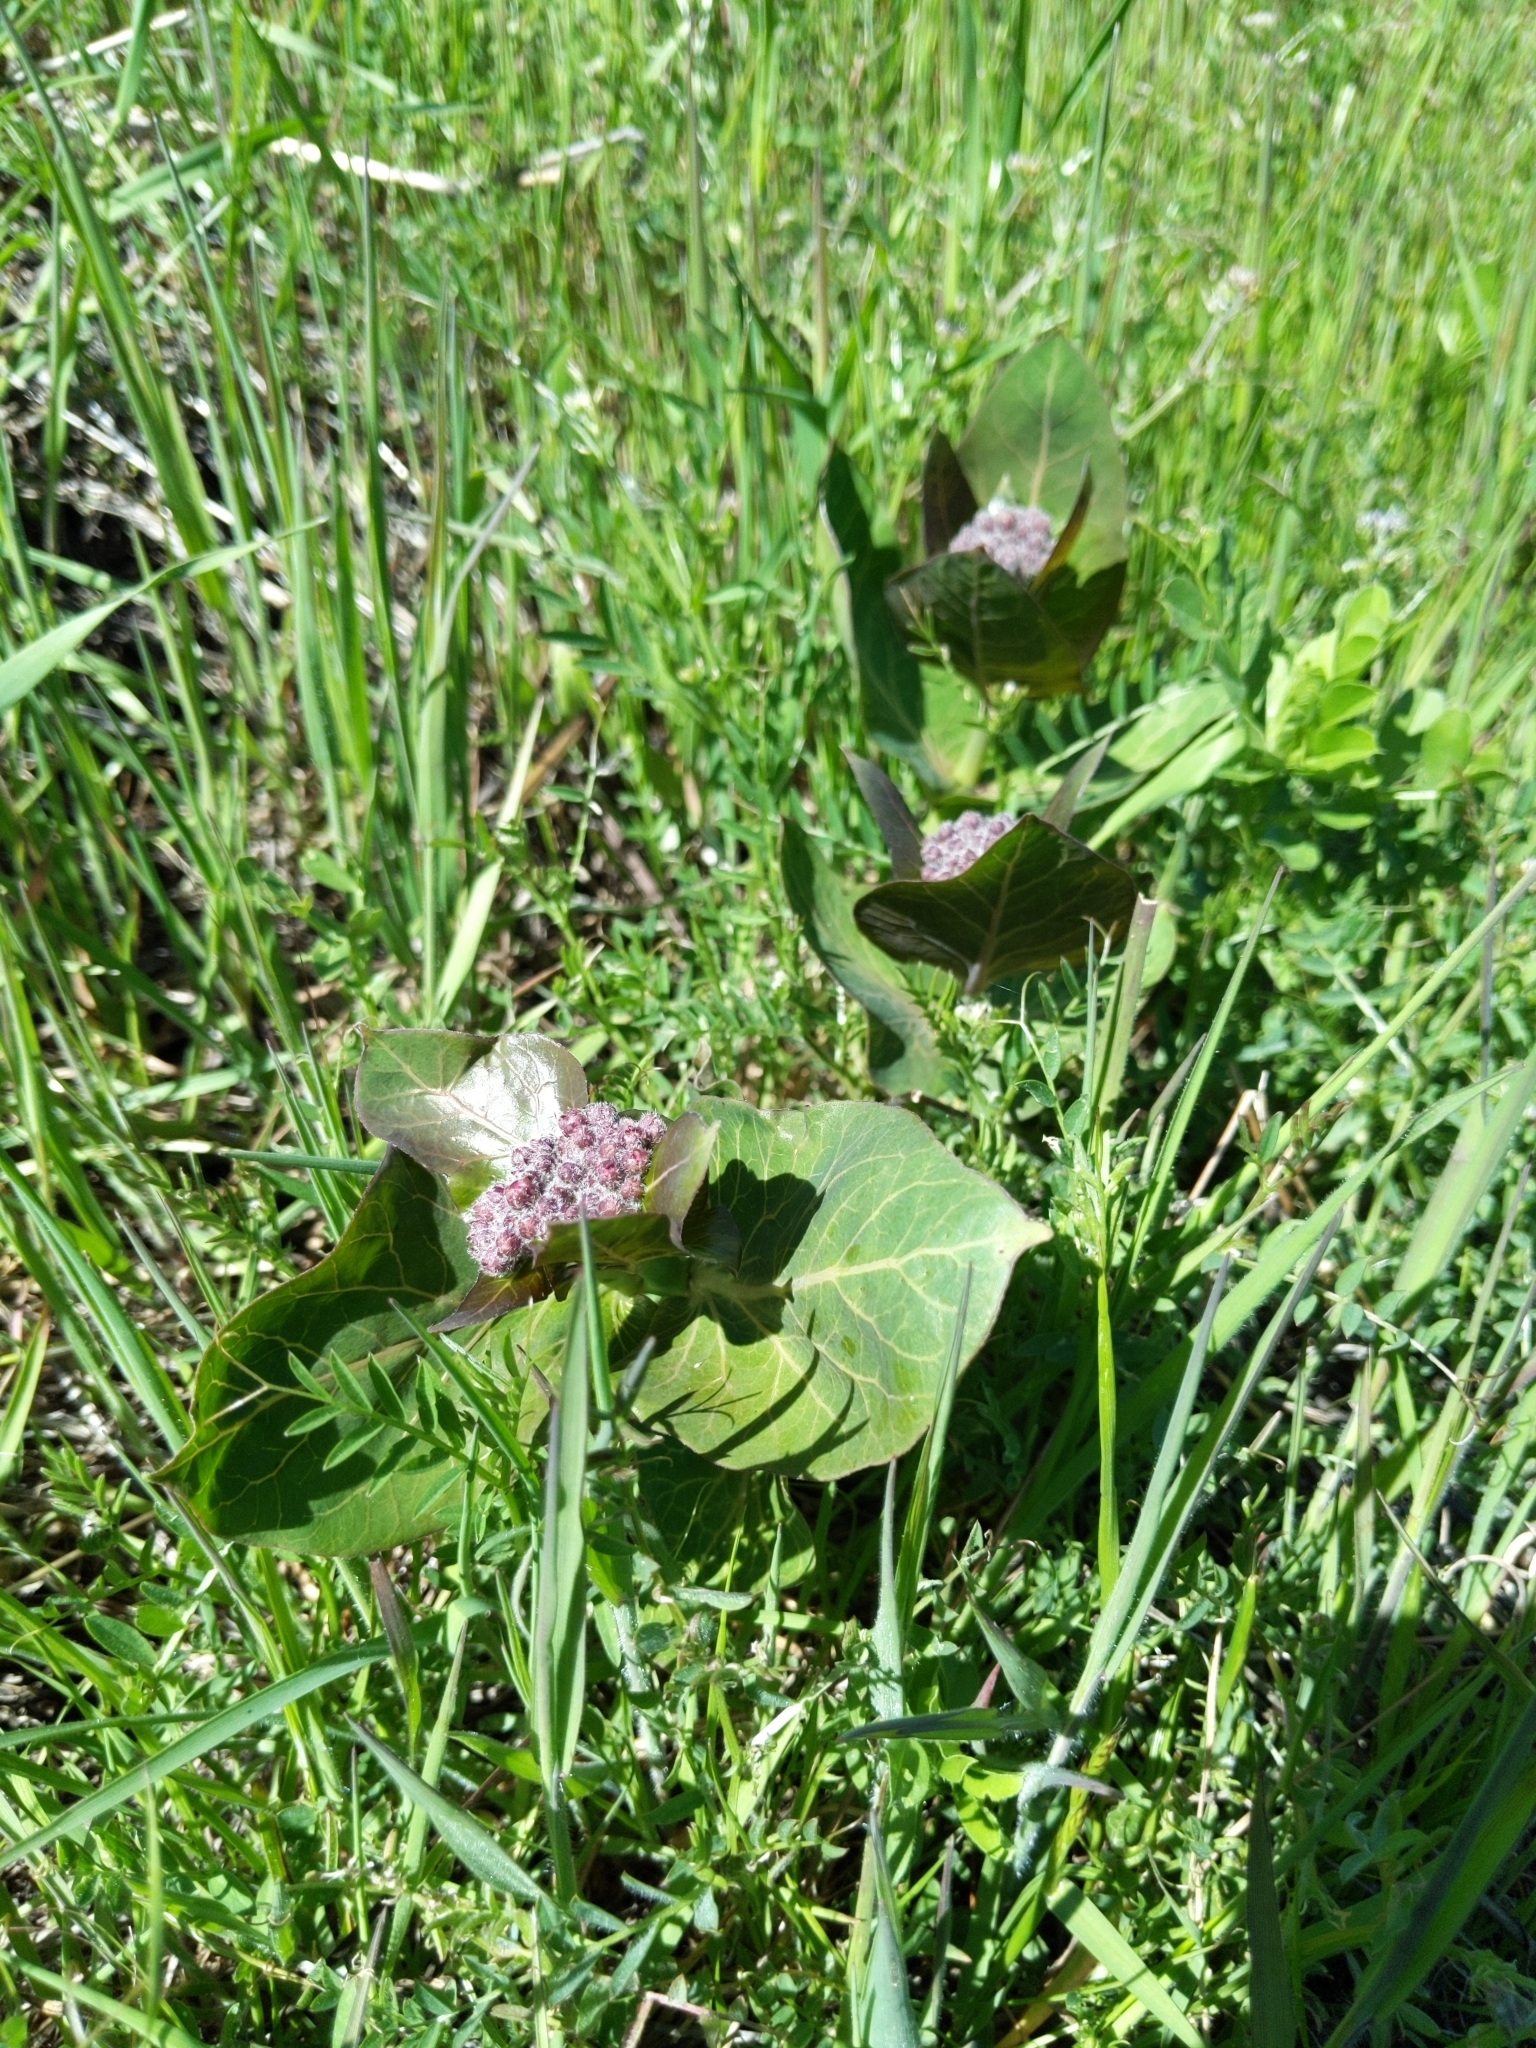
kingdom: Plantae
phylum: Tracheophyta
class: Magnoliopsida
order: Gentianales
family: Apocynaceae
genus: Asclepias
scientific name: Asclepias cordifolia
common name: Purple milkweed
